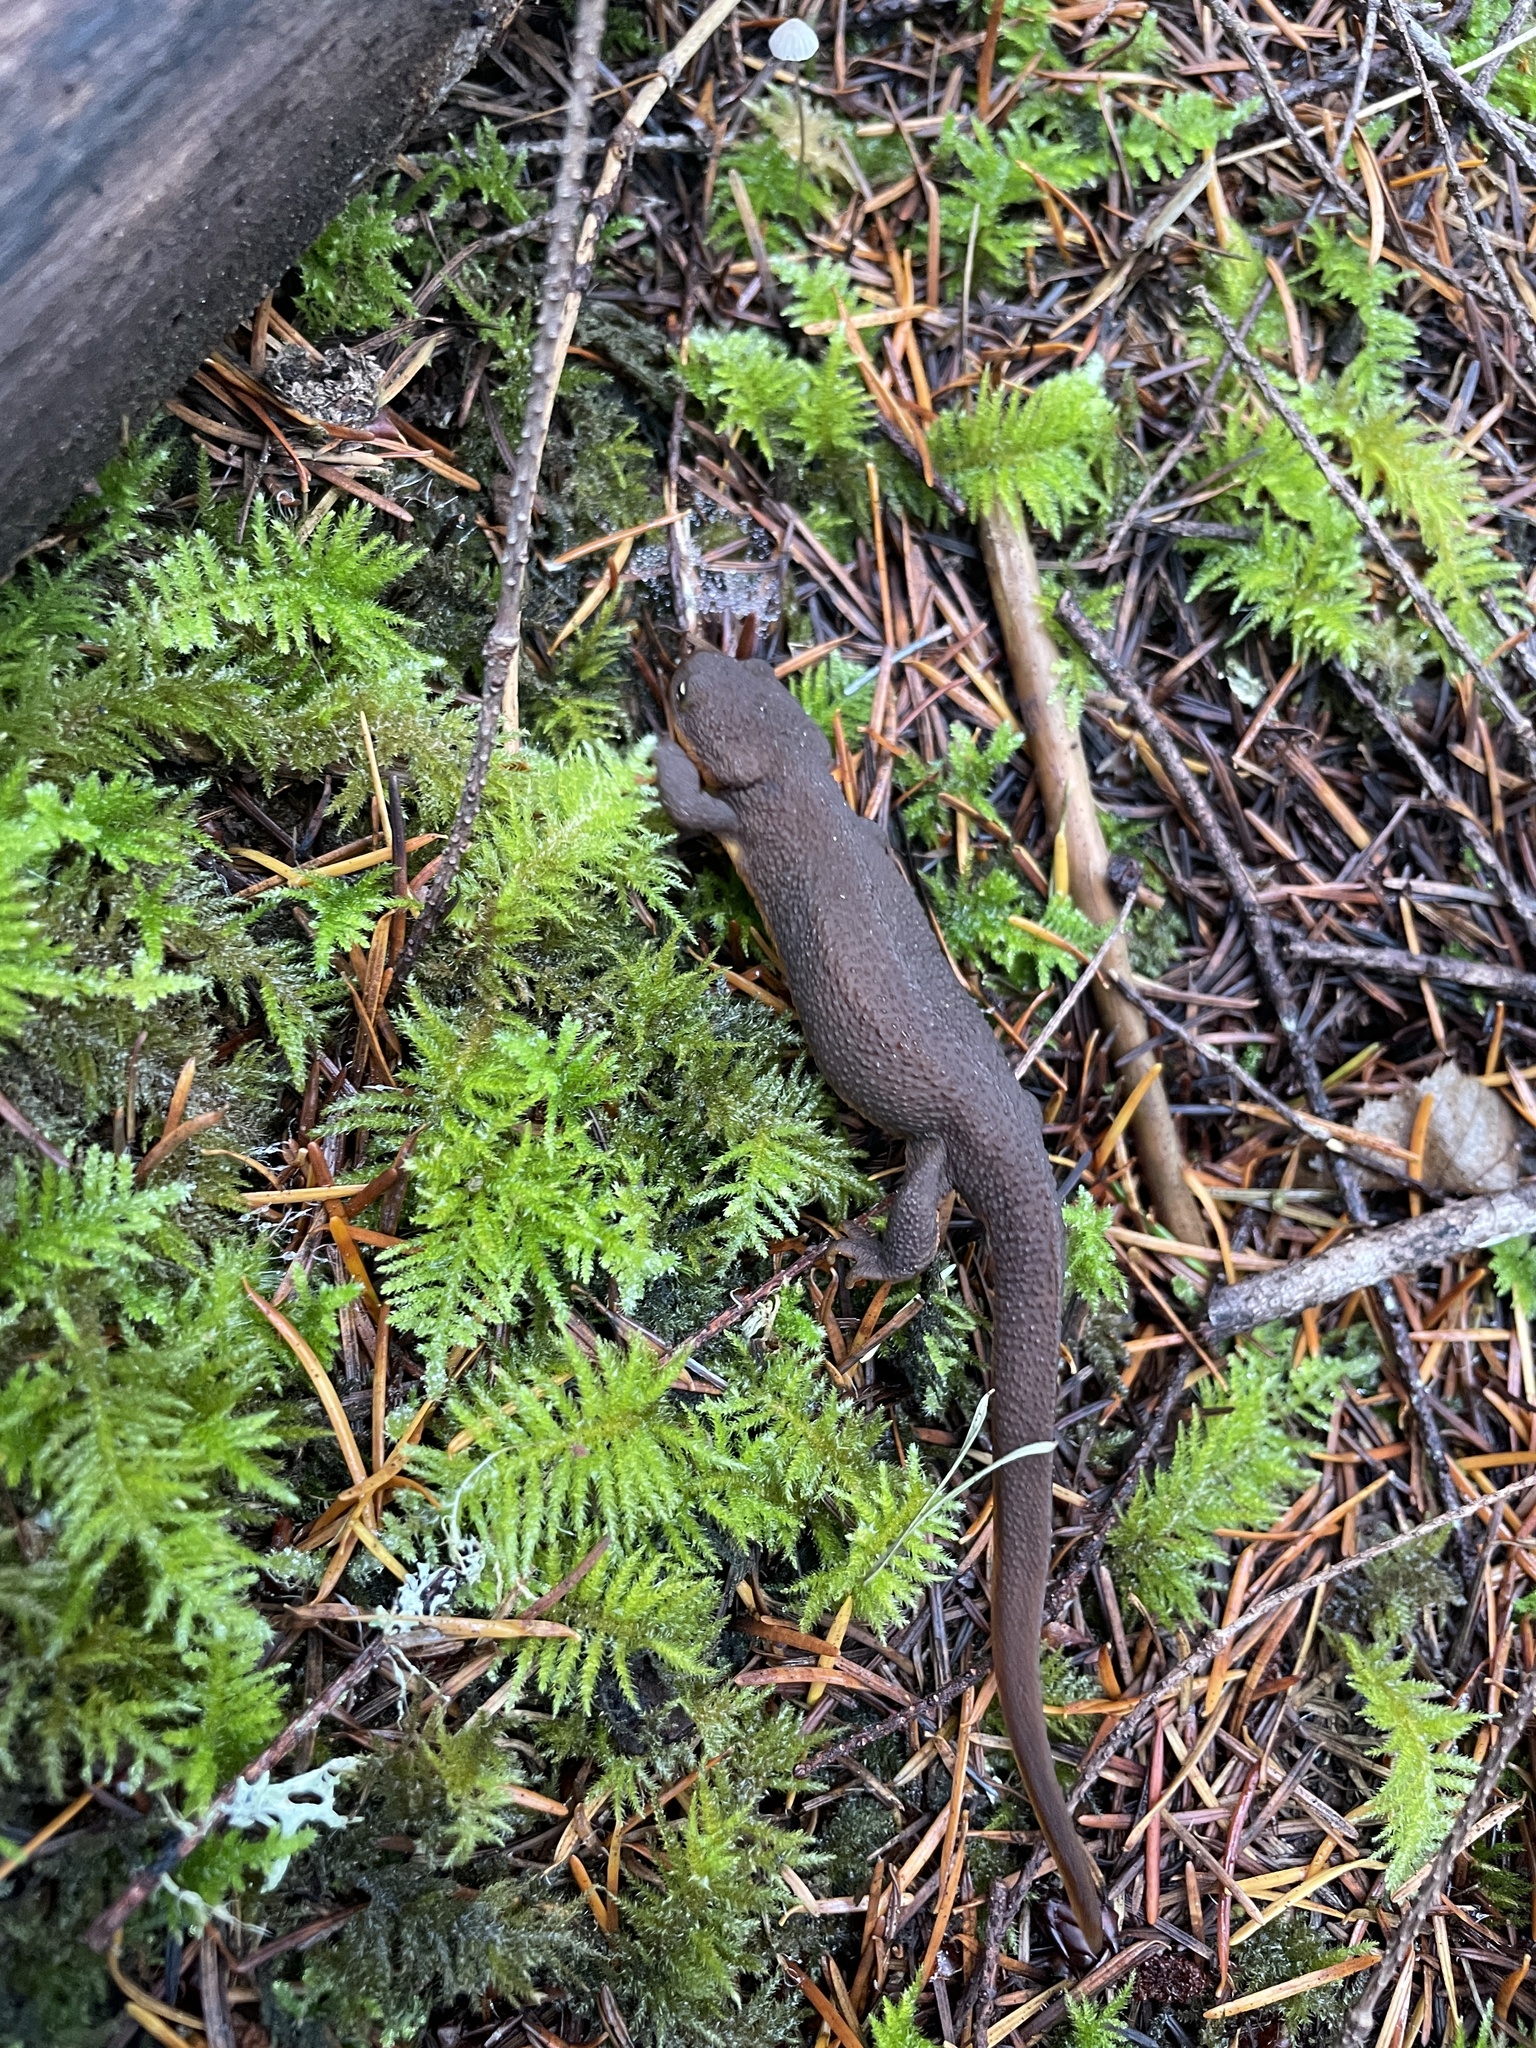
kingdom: Animalia
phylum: Chordata
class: Amphibia
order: Caudata
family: Salamandridae
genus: Taricha
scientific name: Taricha granulosa
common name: Roughskin newt
